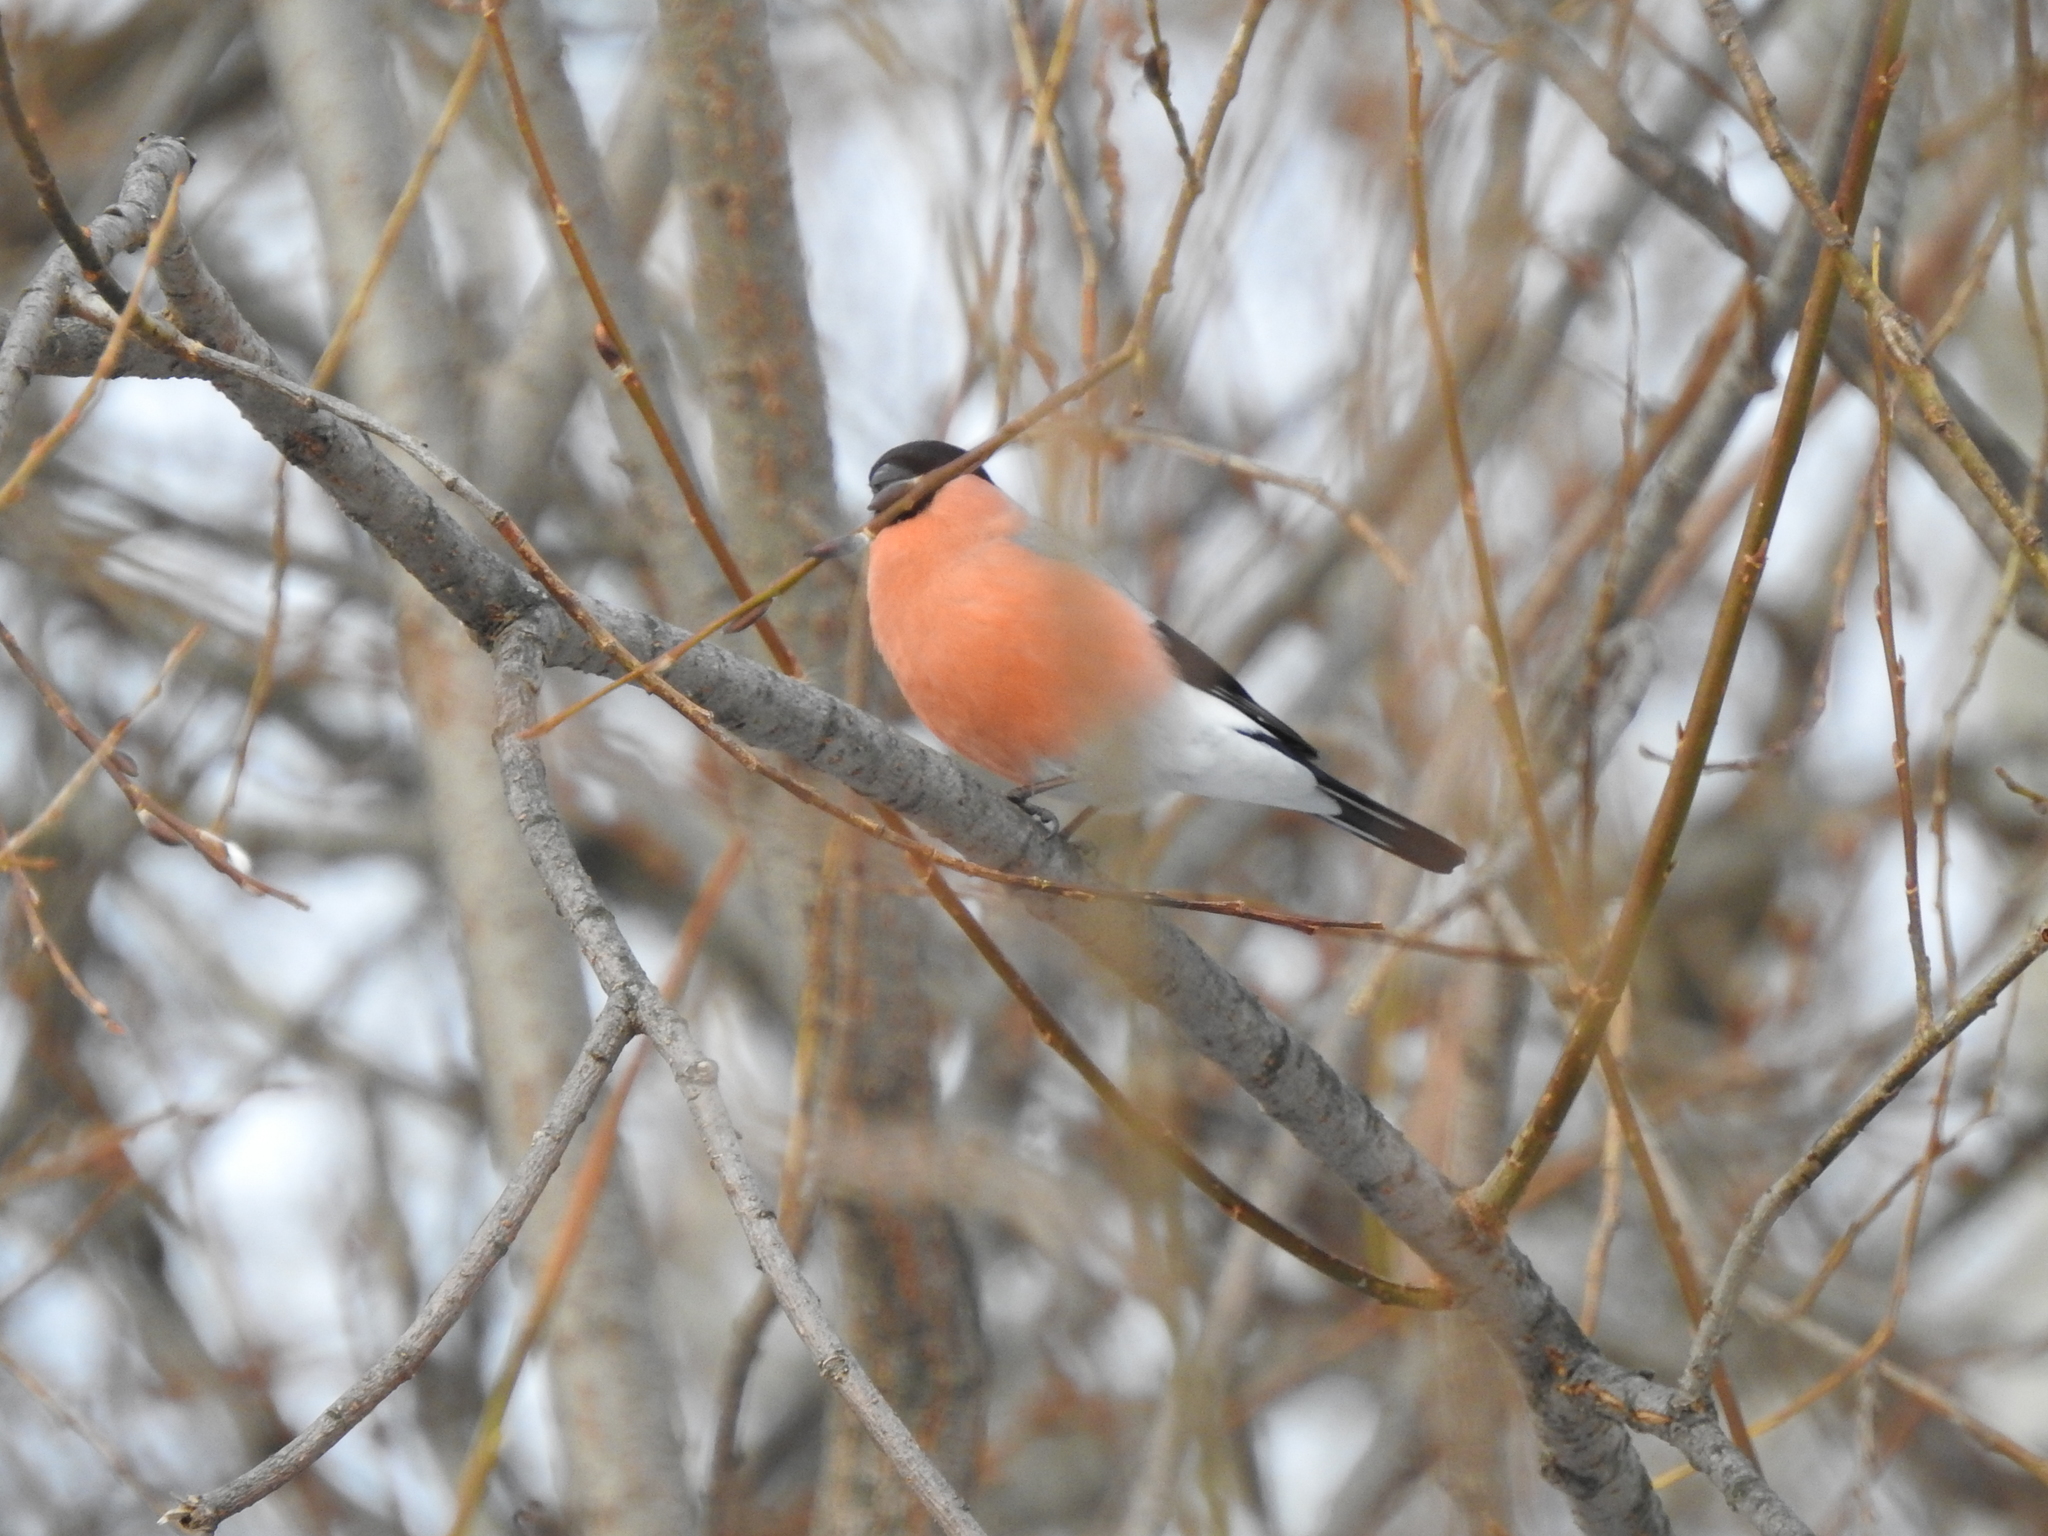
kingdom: Animalia
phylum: Chordata
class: Aves
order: Passeriformes
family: Fringillidae
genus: Pyrrhula
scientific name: Pyrrhula pyrrhula
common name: Eurasian bullfinch
